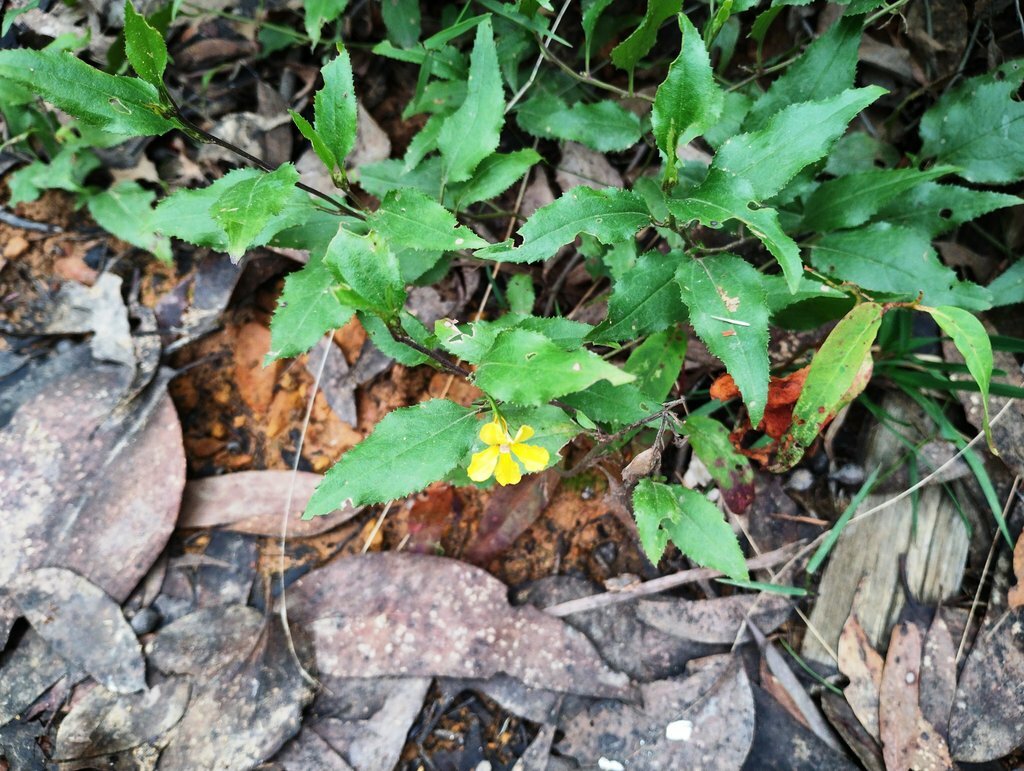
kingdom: Plantae
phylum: Tracheophyta
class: Magnoliopsida
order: Asterales
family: Goodeniaceae
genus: Goodenia
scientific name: Goodenia ovata
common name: Hop goodenia
